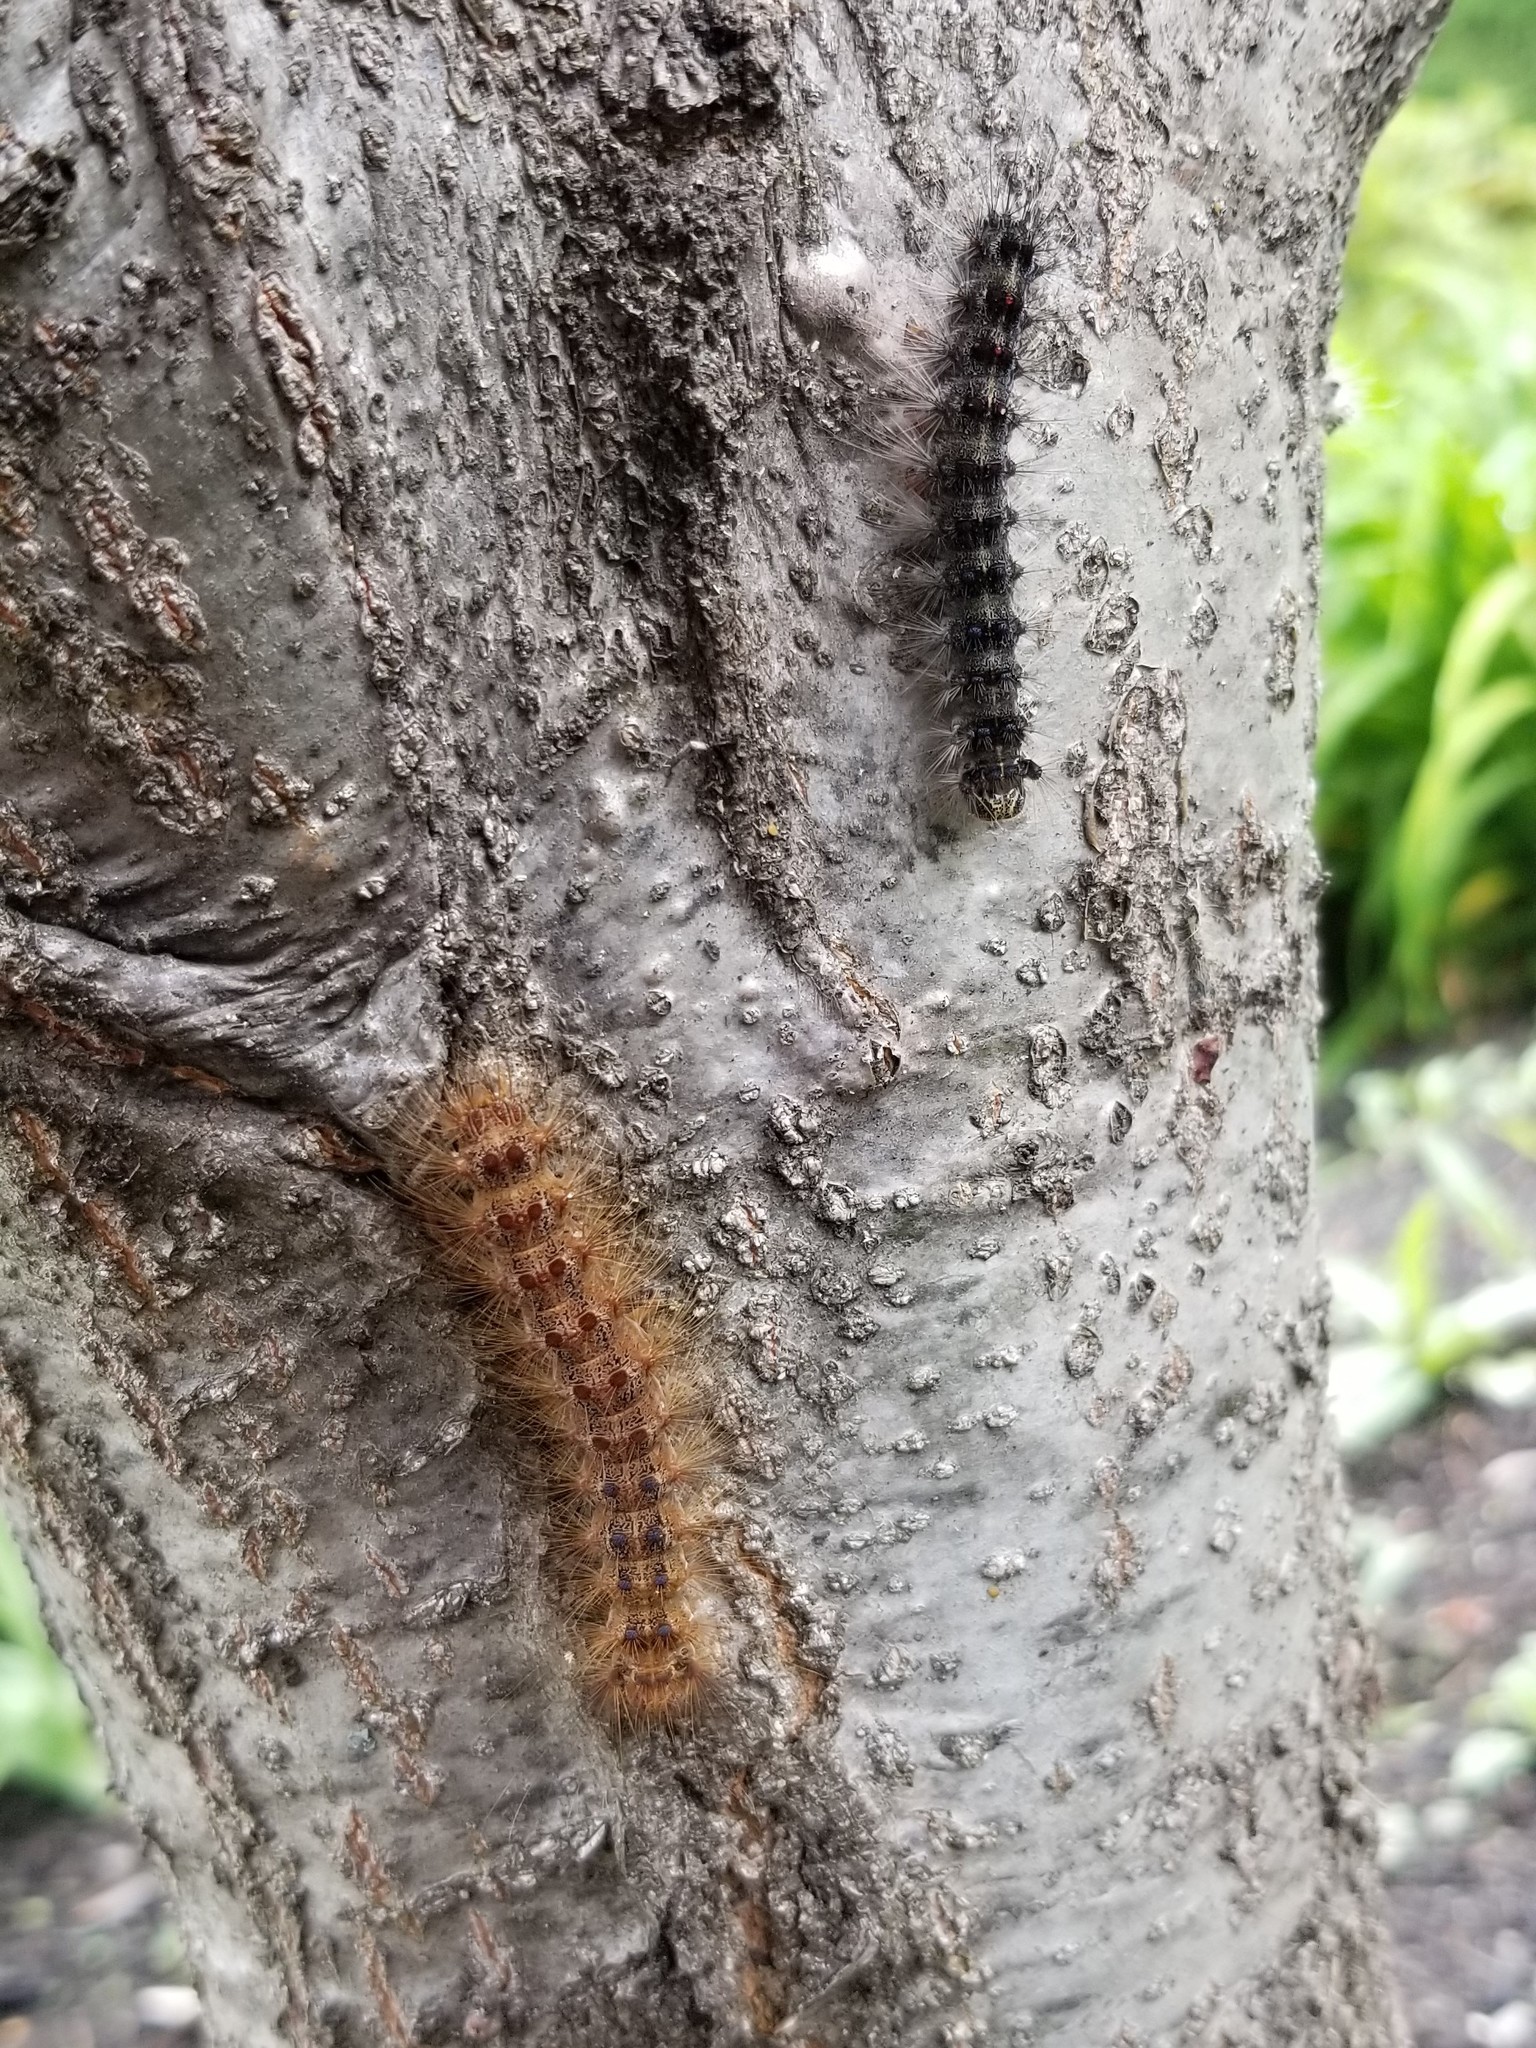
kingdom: Animalia
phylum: Arthropoda
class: Insecta
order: Lepidoptera
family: Erebidae
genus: Lymantria
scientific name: Lymantria dispar
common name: Gypsy moth
